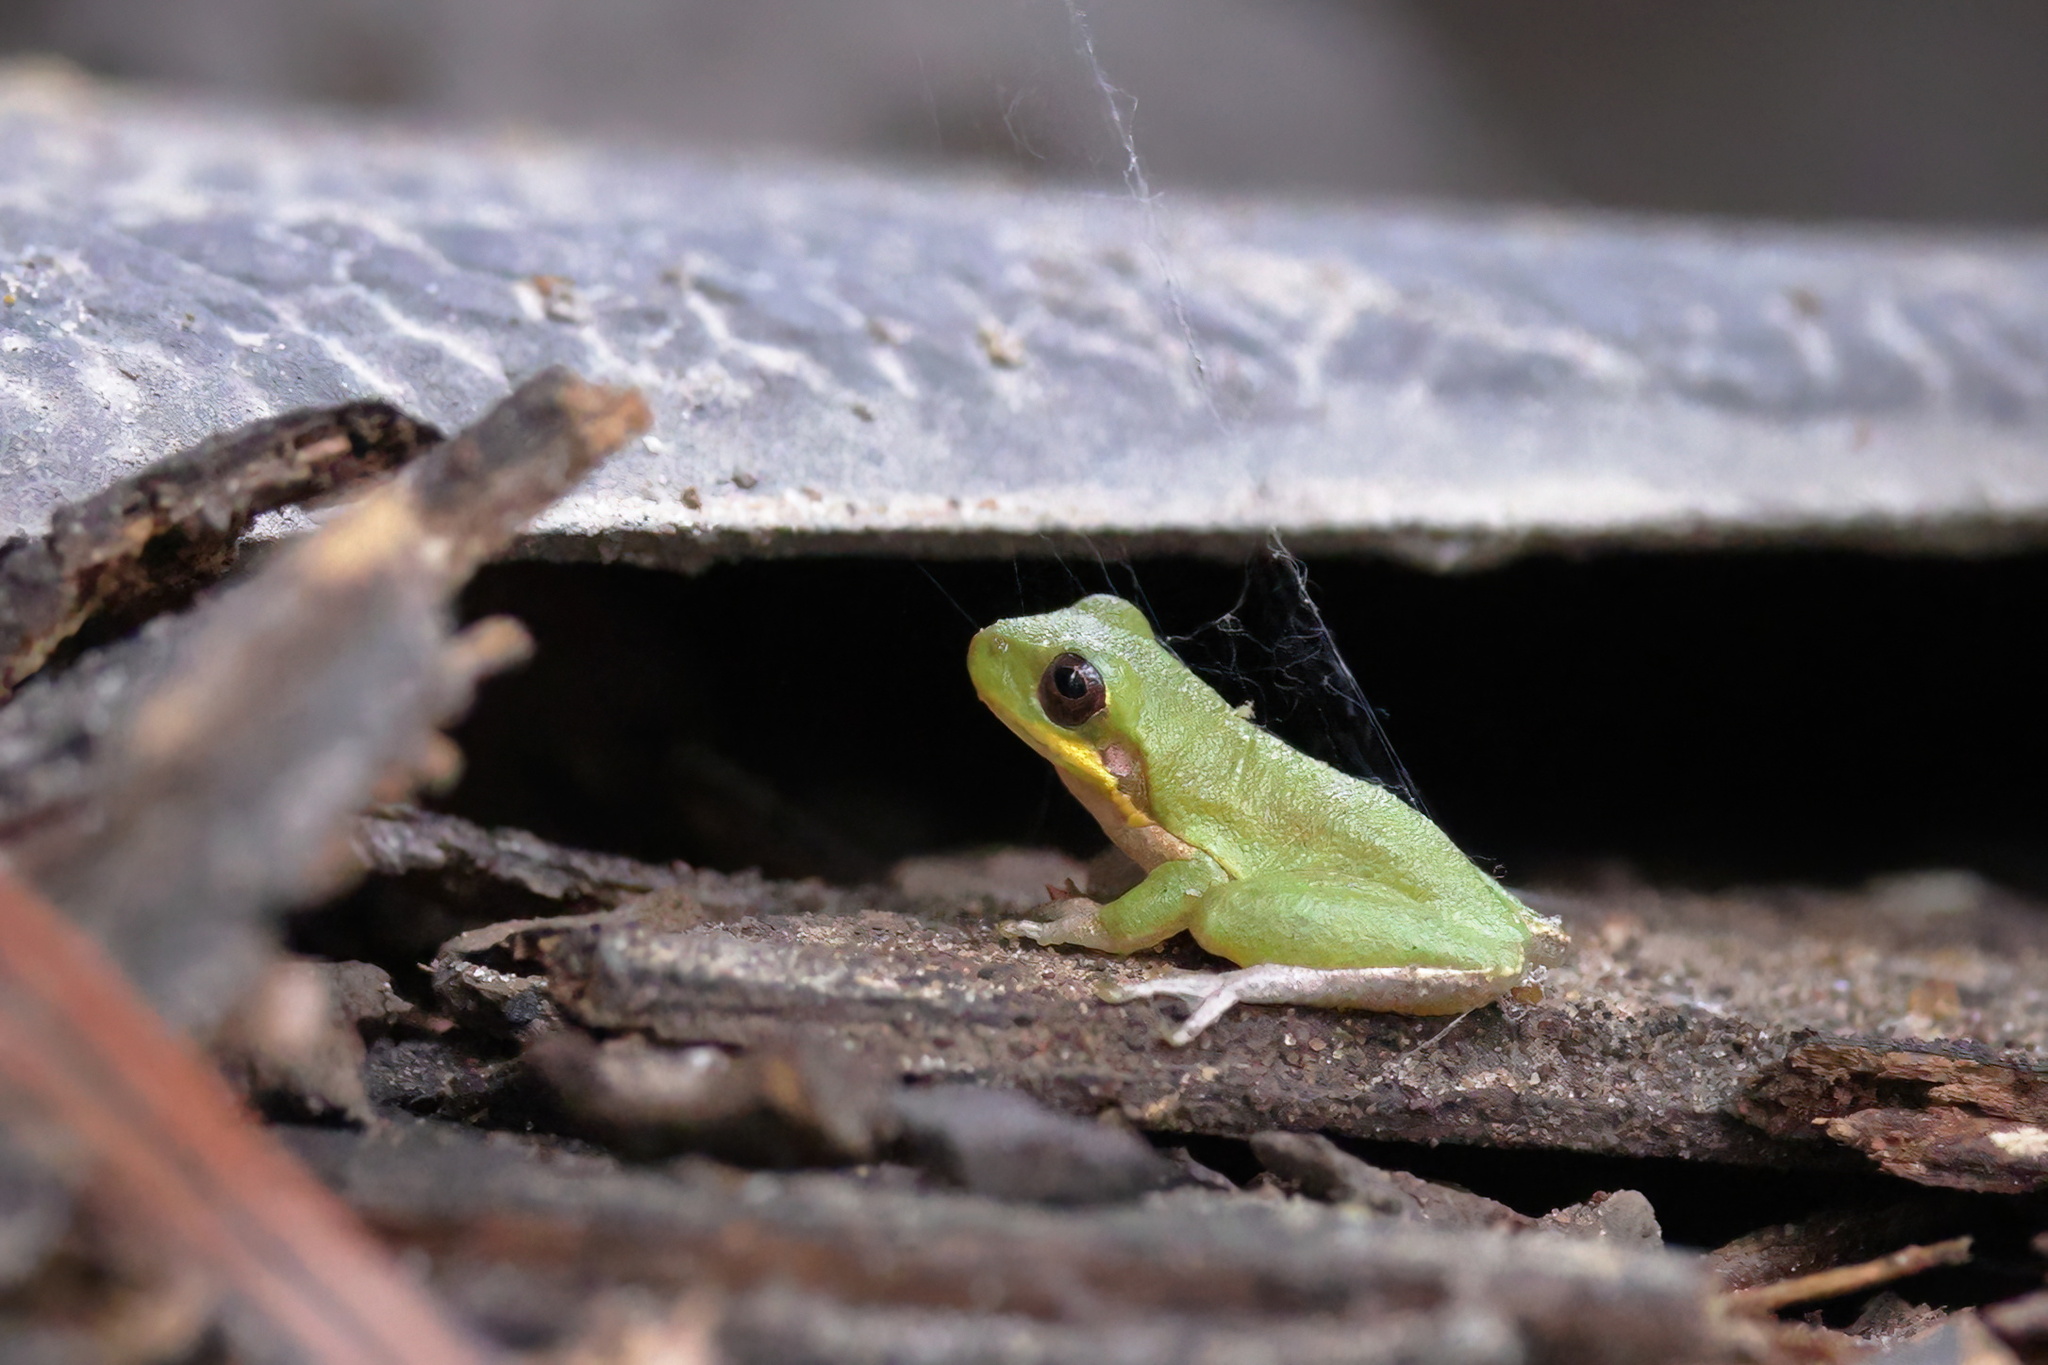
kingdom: Animalia
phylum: Chordata
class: Amphibia
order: Anura
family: Hylidae
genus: Dryophytes
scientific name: Dryophytes squirellus
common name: Squirrel treefrog
